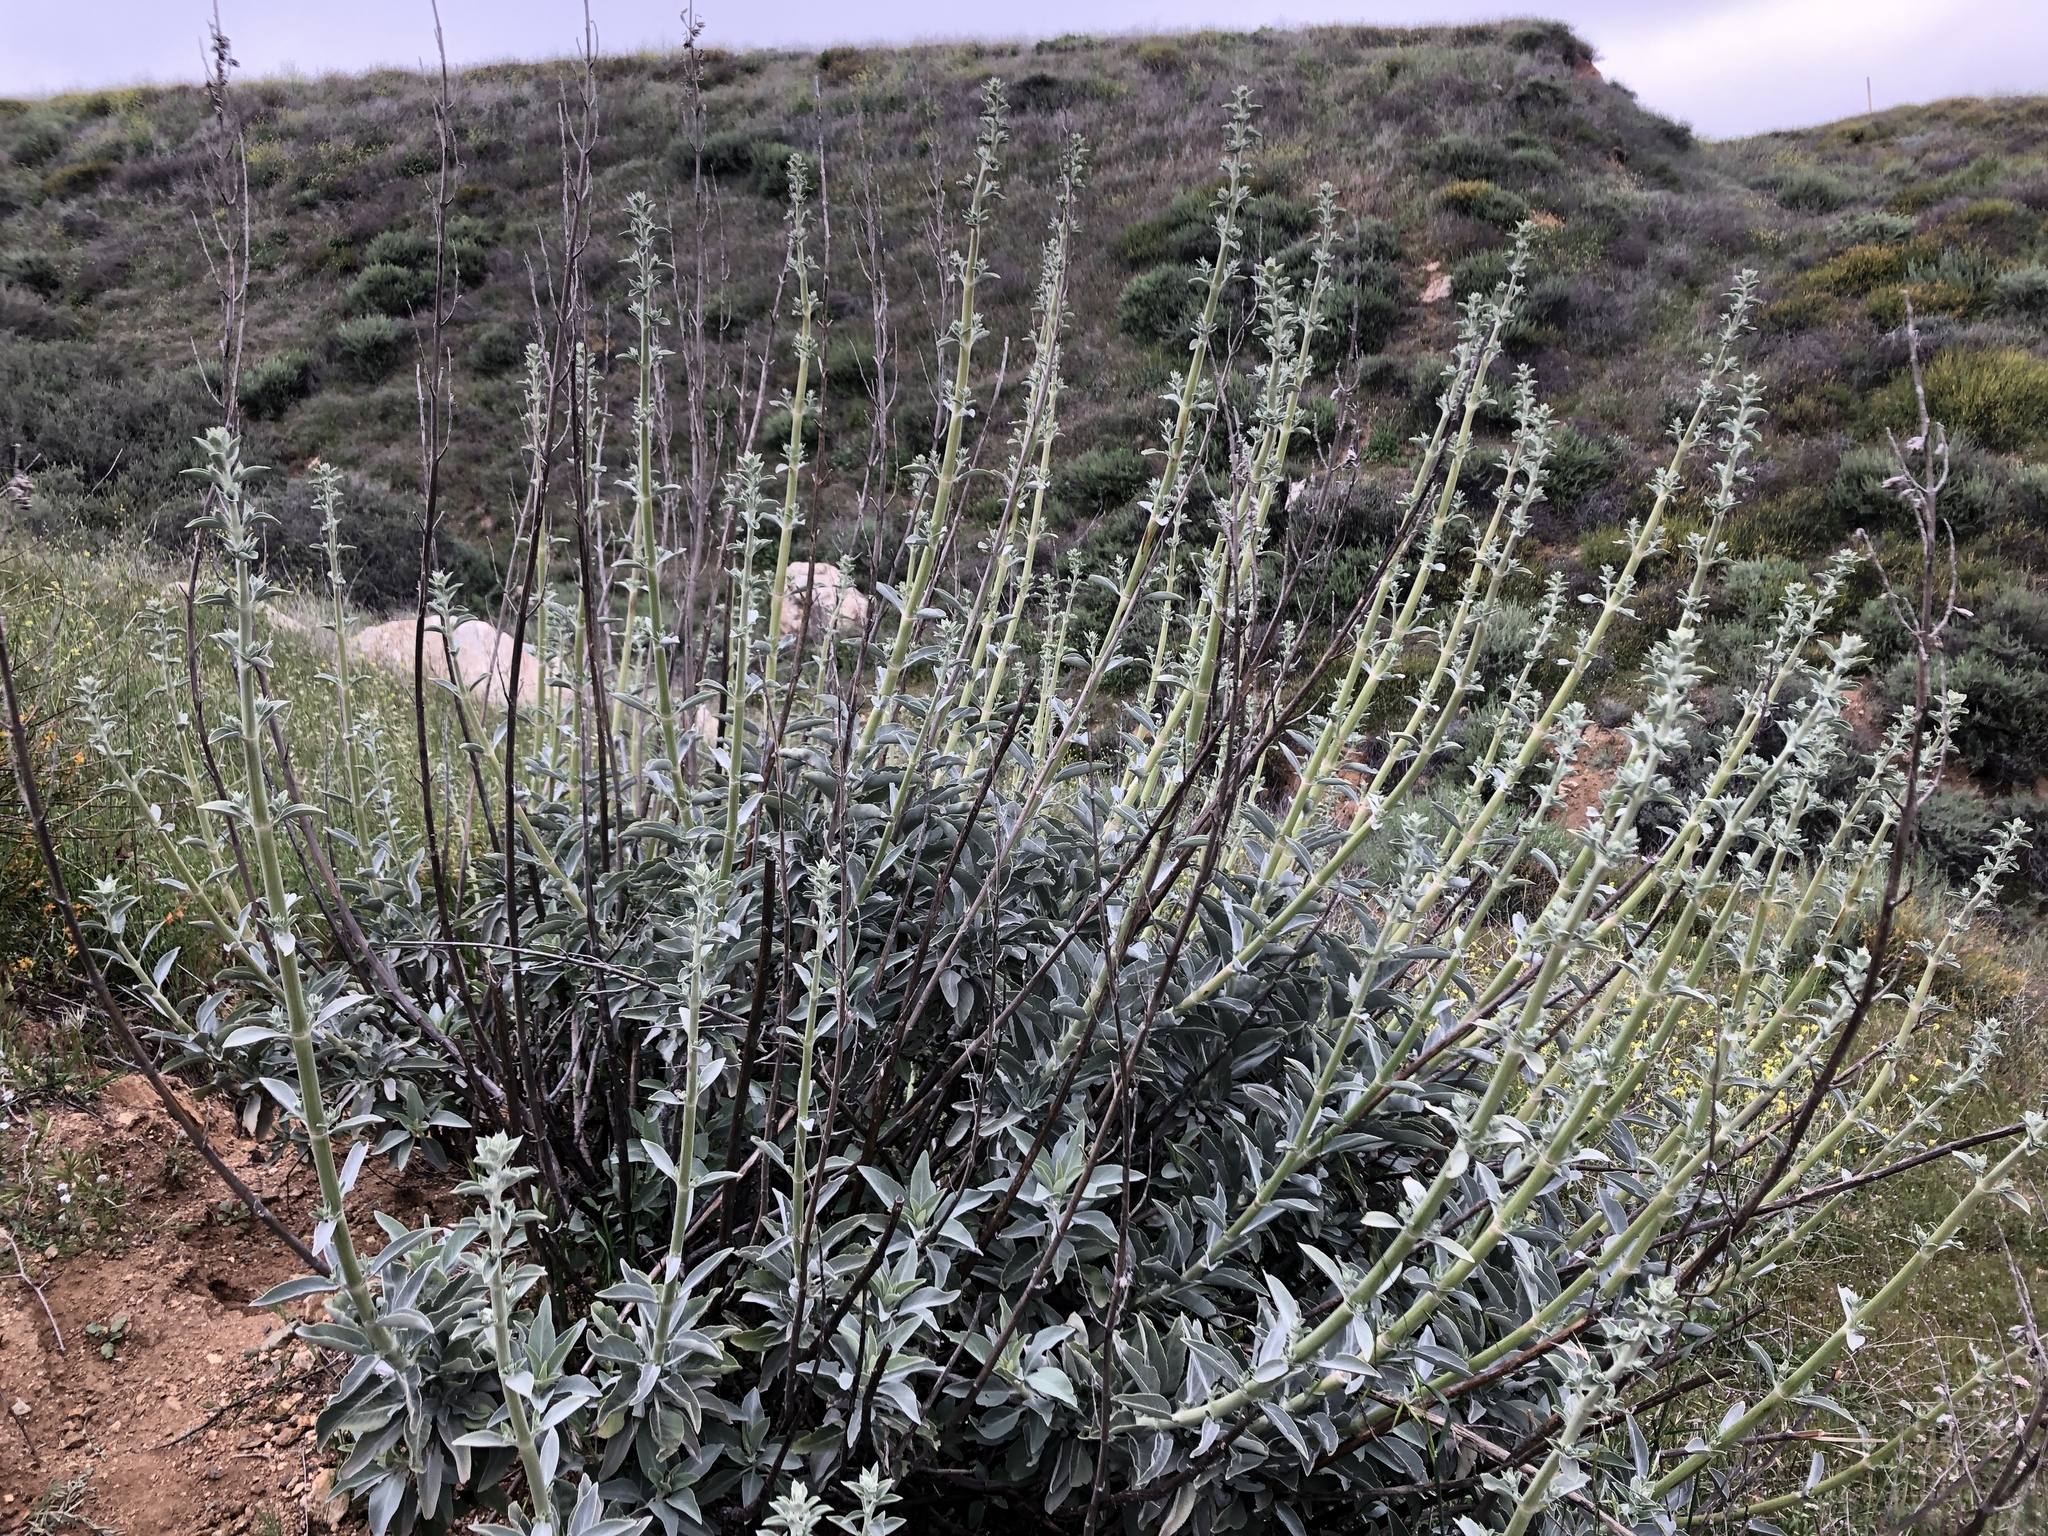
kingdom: Plantae
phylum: Tracheophyta
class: Magnoliopsida
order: Lamiales
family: Lamiaceae
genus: Salvia
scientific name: Salvia apiana
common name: White sage
